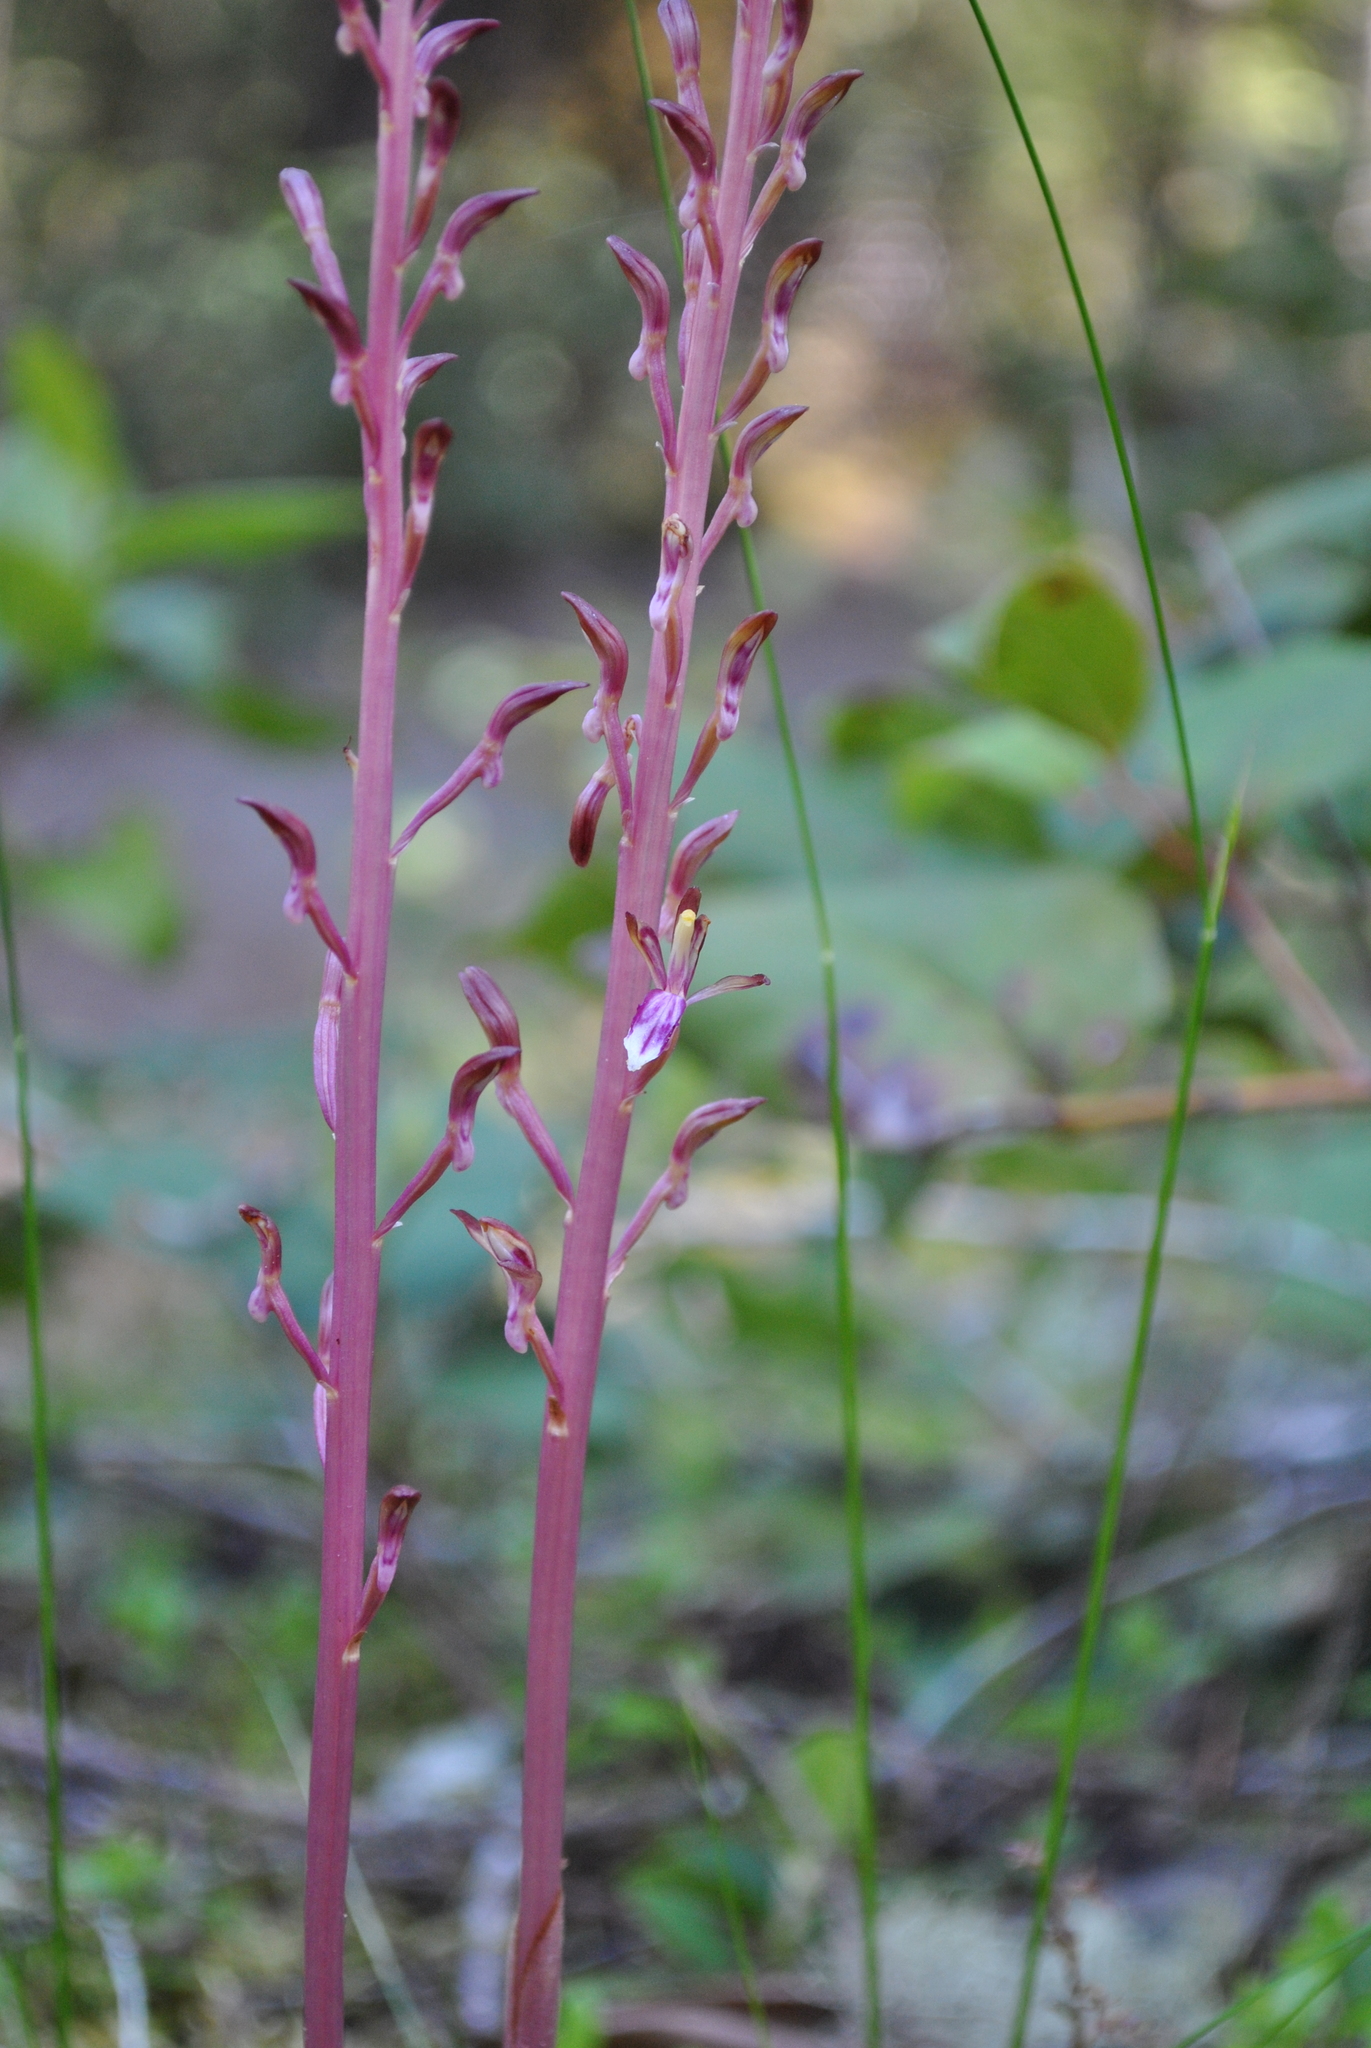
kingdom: Plantae
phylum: Tracheophyta
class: Liliopsida
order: Asparagales
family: Orchidaceae
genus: Corallorhiza
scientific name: Corallorhiza mertensiana
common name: Pacific coralroot
